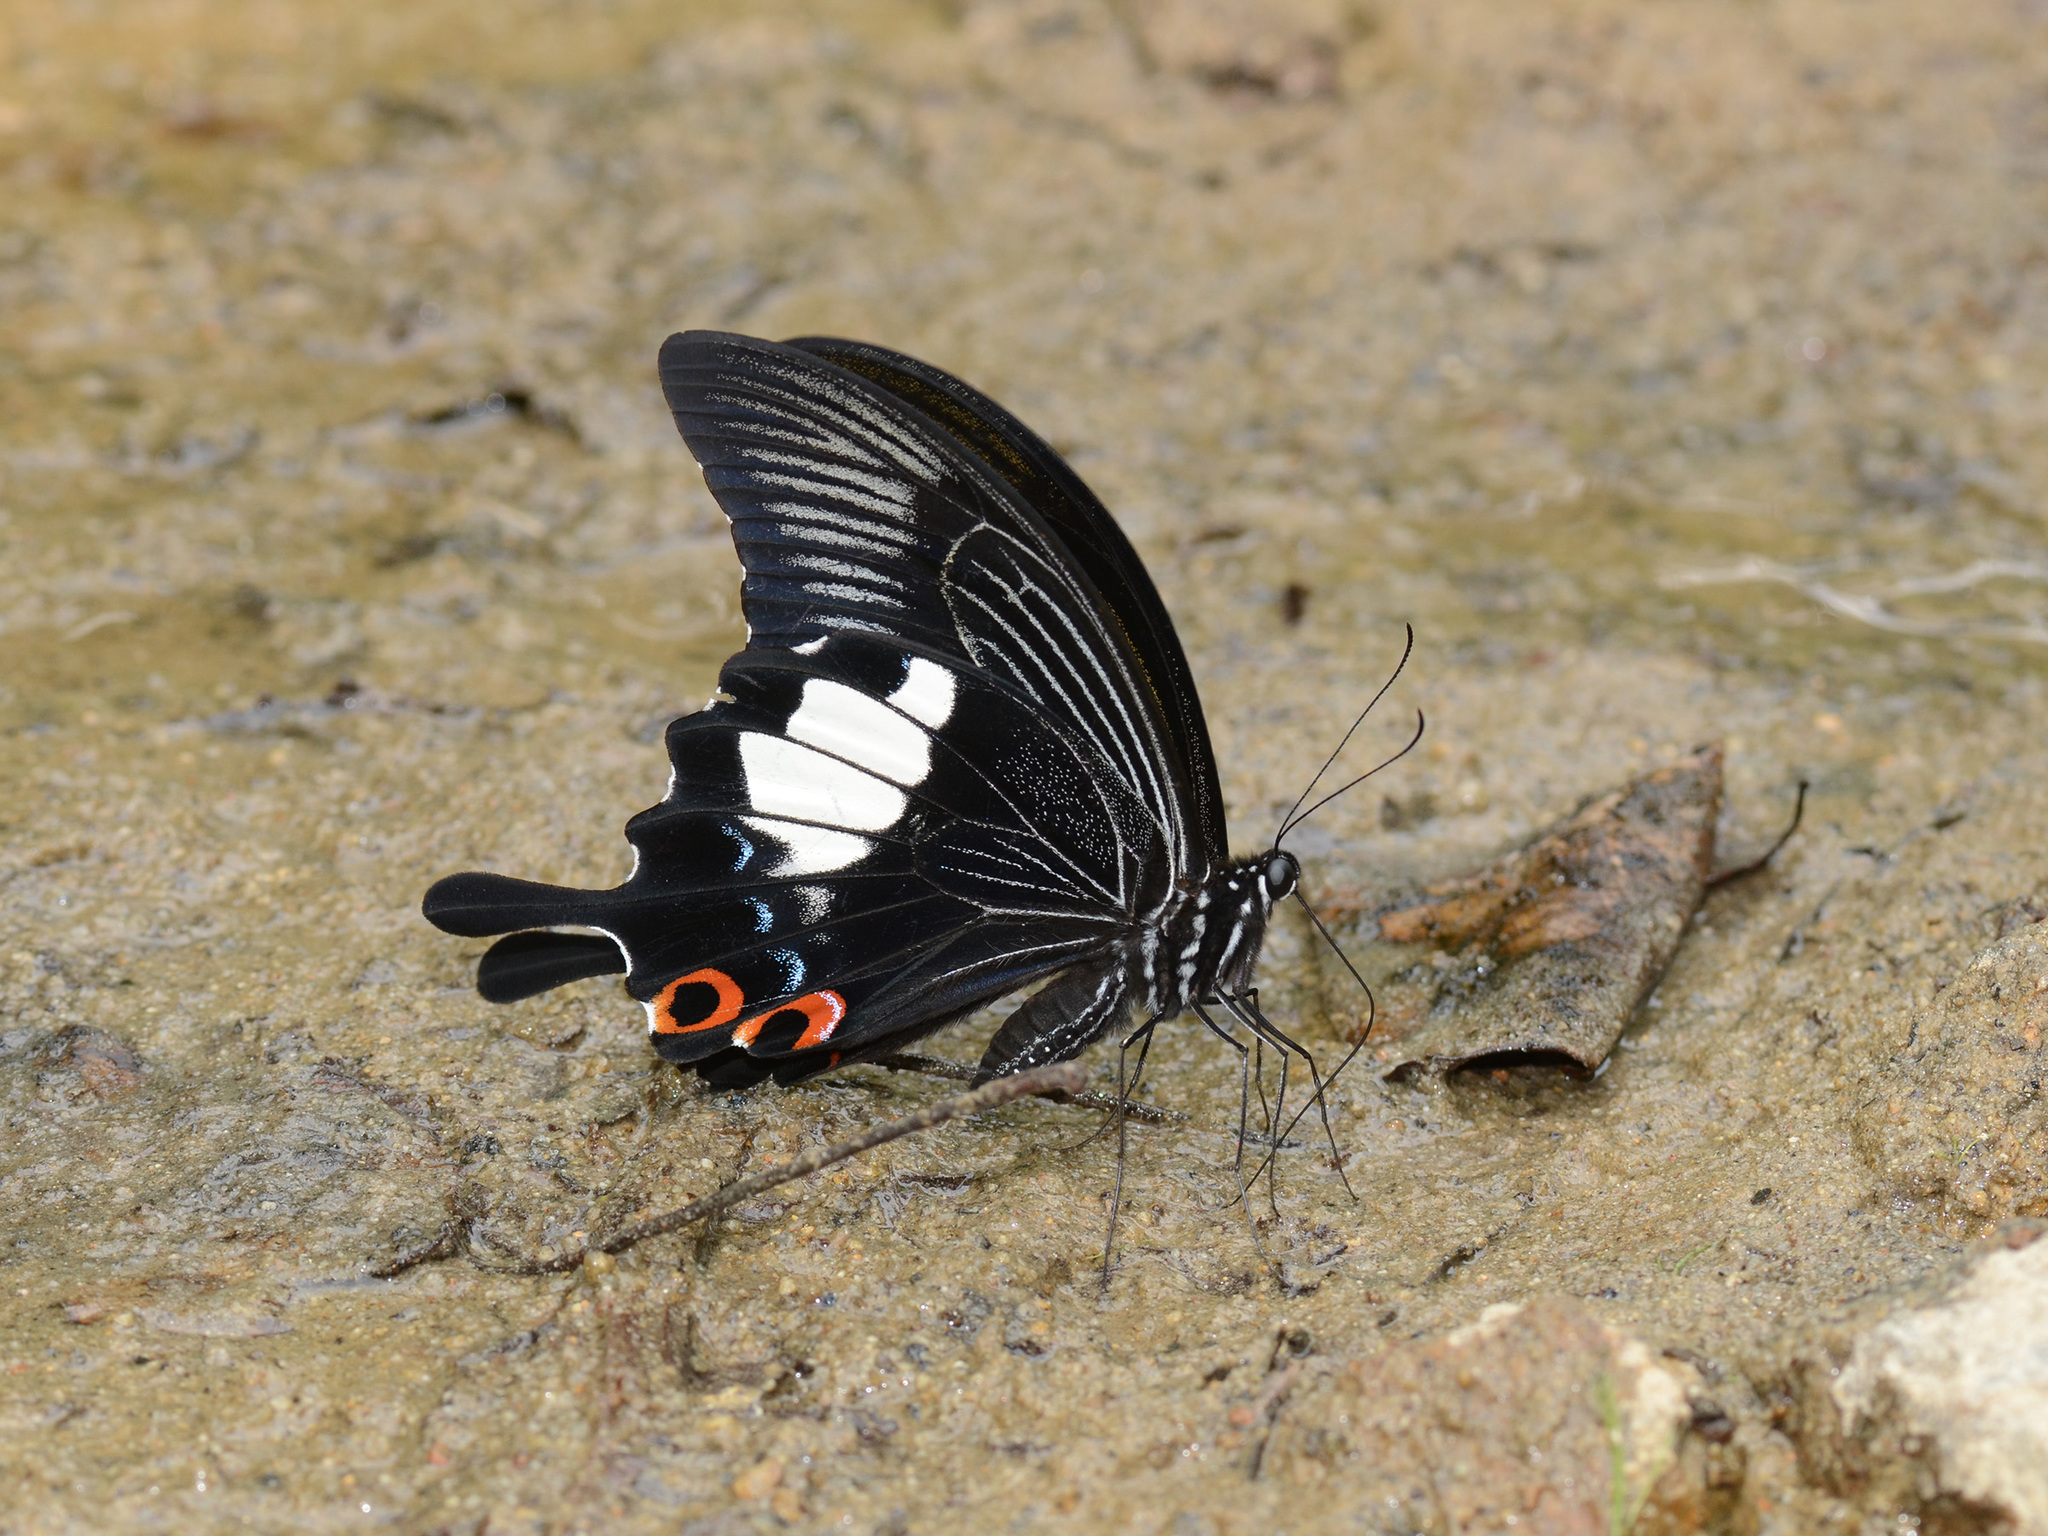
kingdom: Animalia
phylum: Arthropoda
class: Insecta
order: Lepidoptera
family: Papilionidae
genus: Papilio
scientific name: Papilio iswara
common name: Great helen swallowtail
